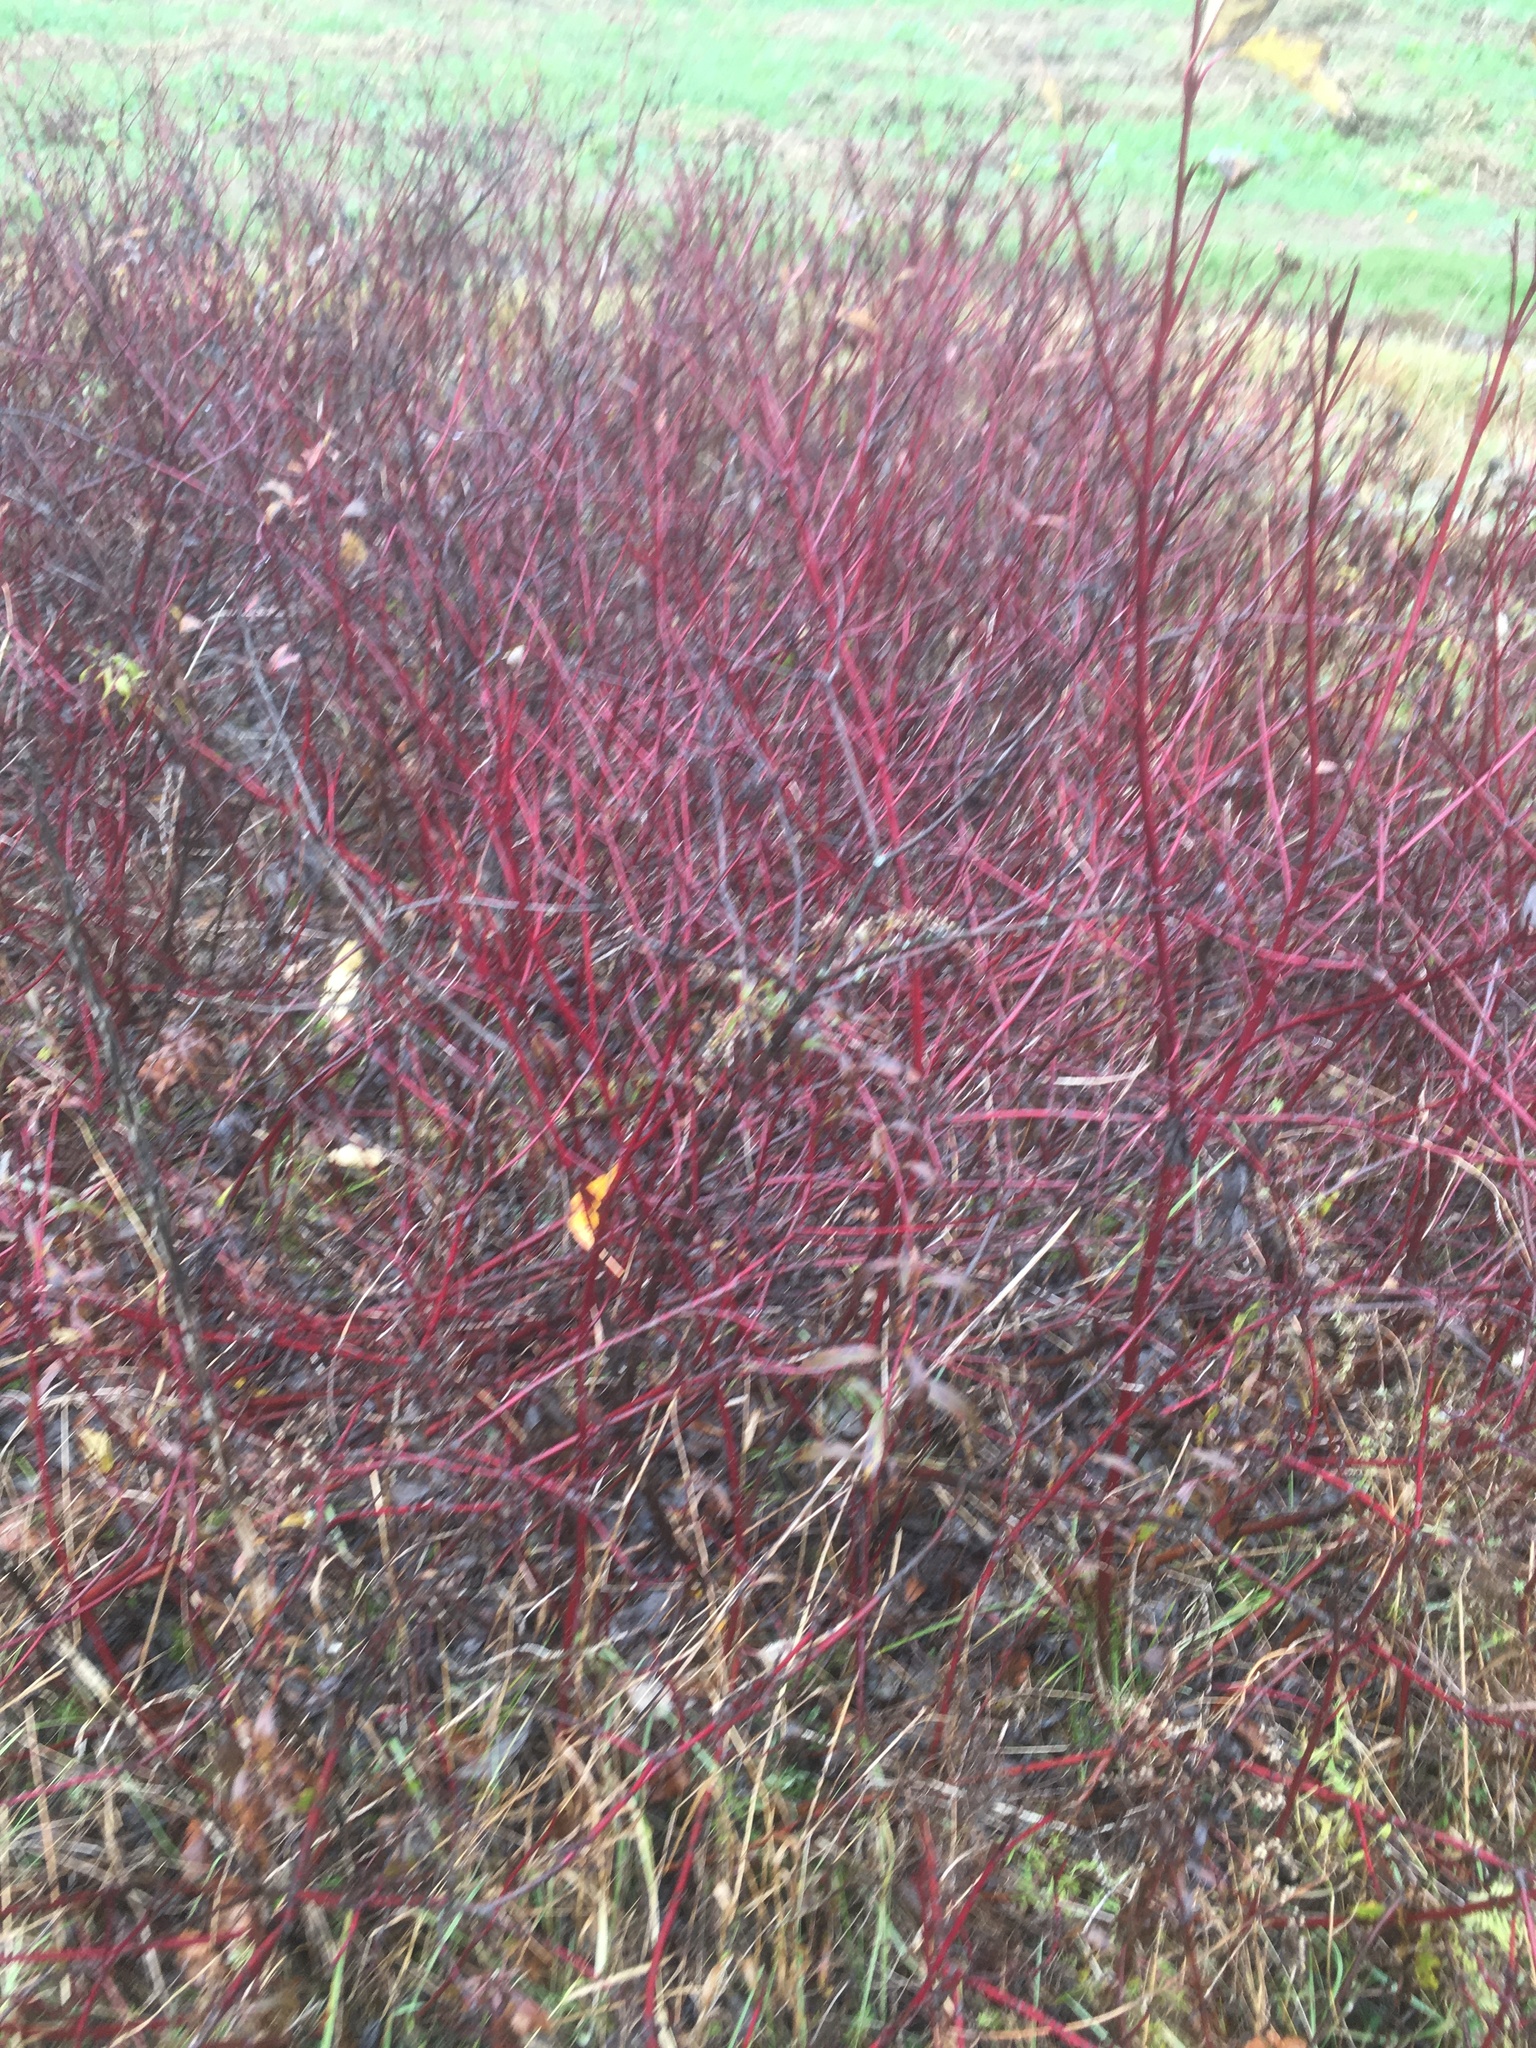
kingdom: Plantae
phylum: Tracheophyta
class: Magnoliopsida
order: Cornales
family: Cornaceae
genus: Cornus
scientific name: Cornus sericea
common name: Red-osier dogwood
